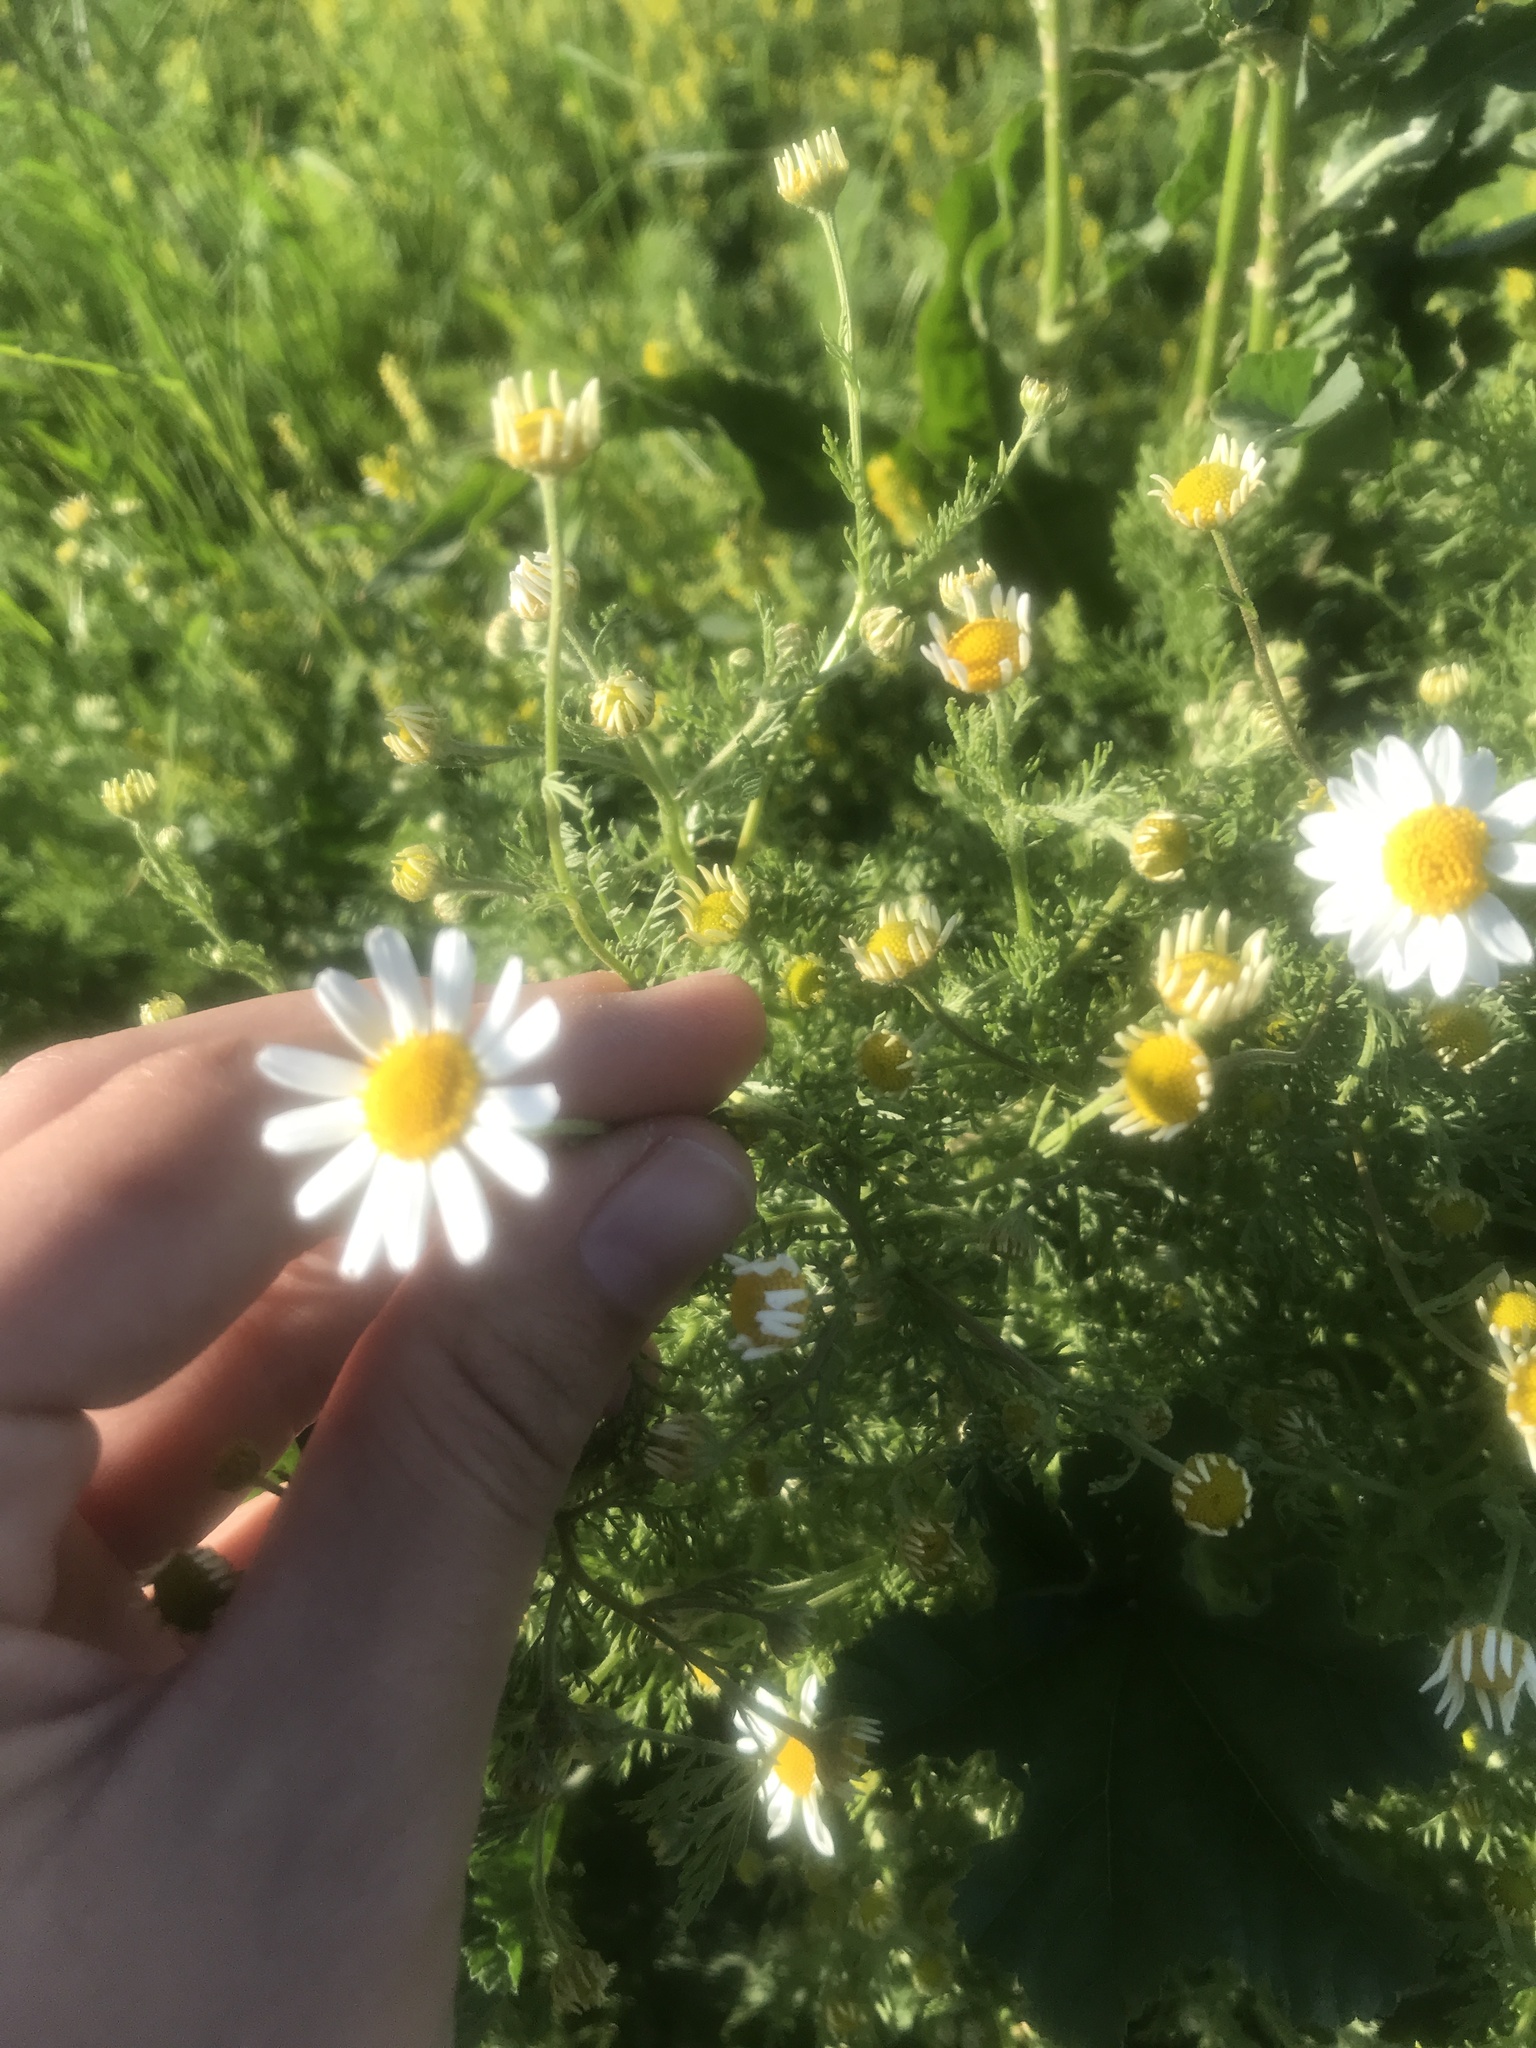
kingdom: Plantae
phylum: Tracheophyta
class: Magnoliopsida
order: Asterales
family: Asteraceae
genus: Anthemis
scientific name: Anthemis cotula
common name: Stinking chamomile
